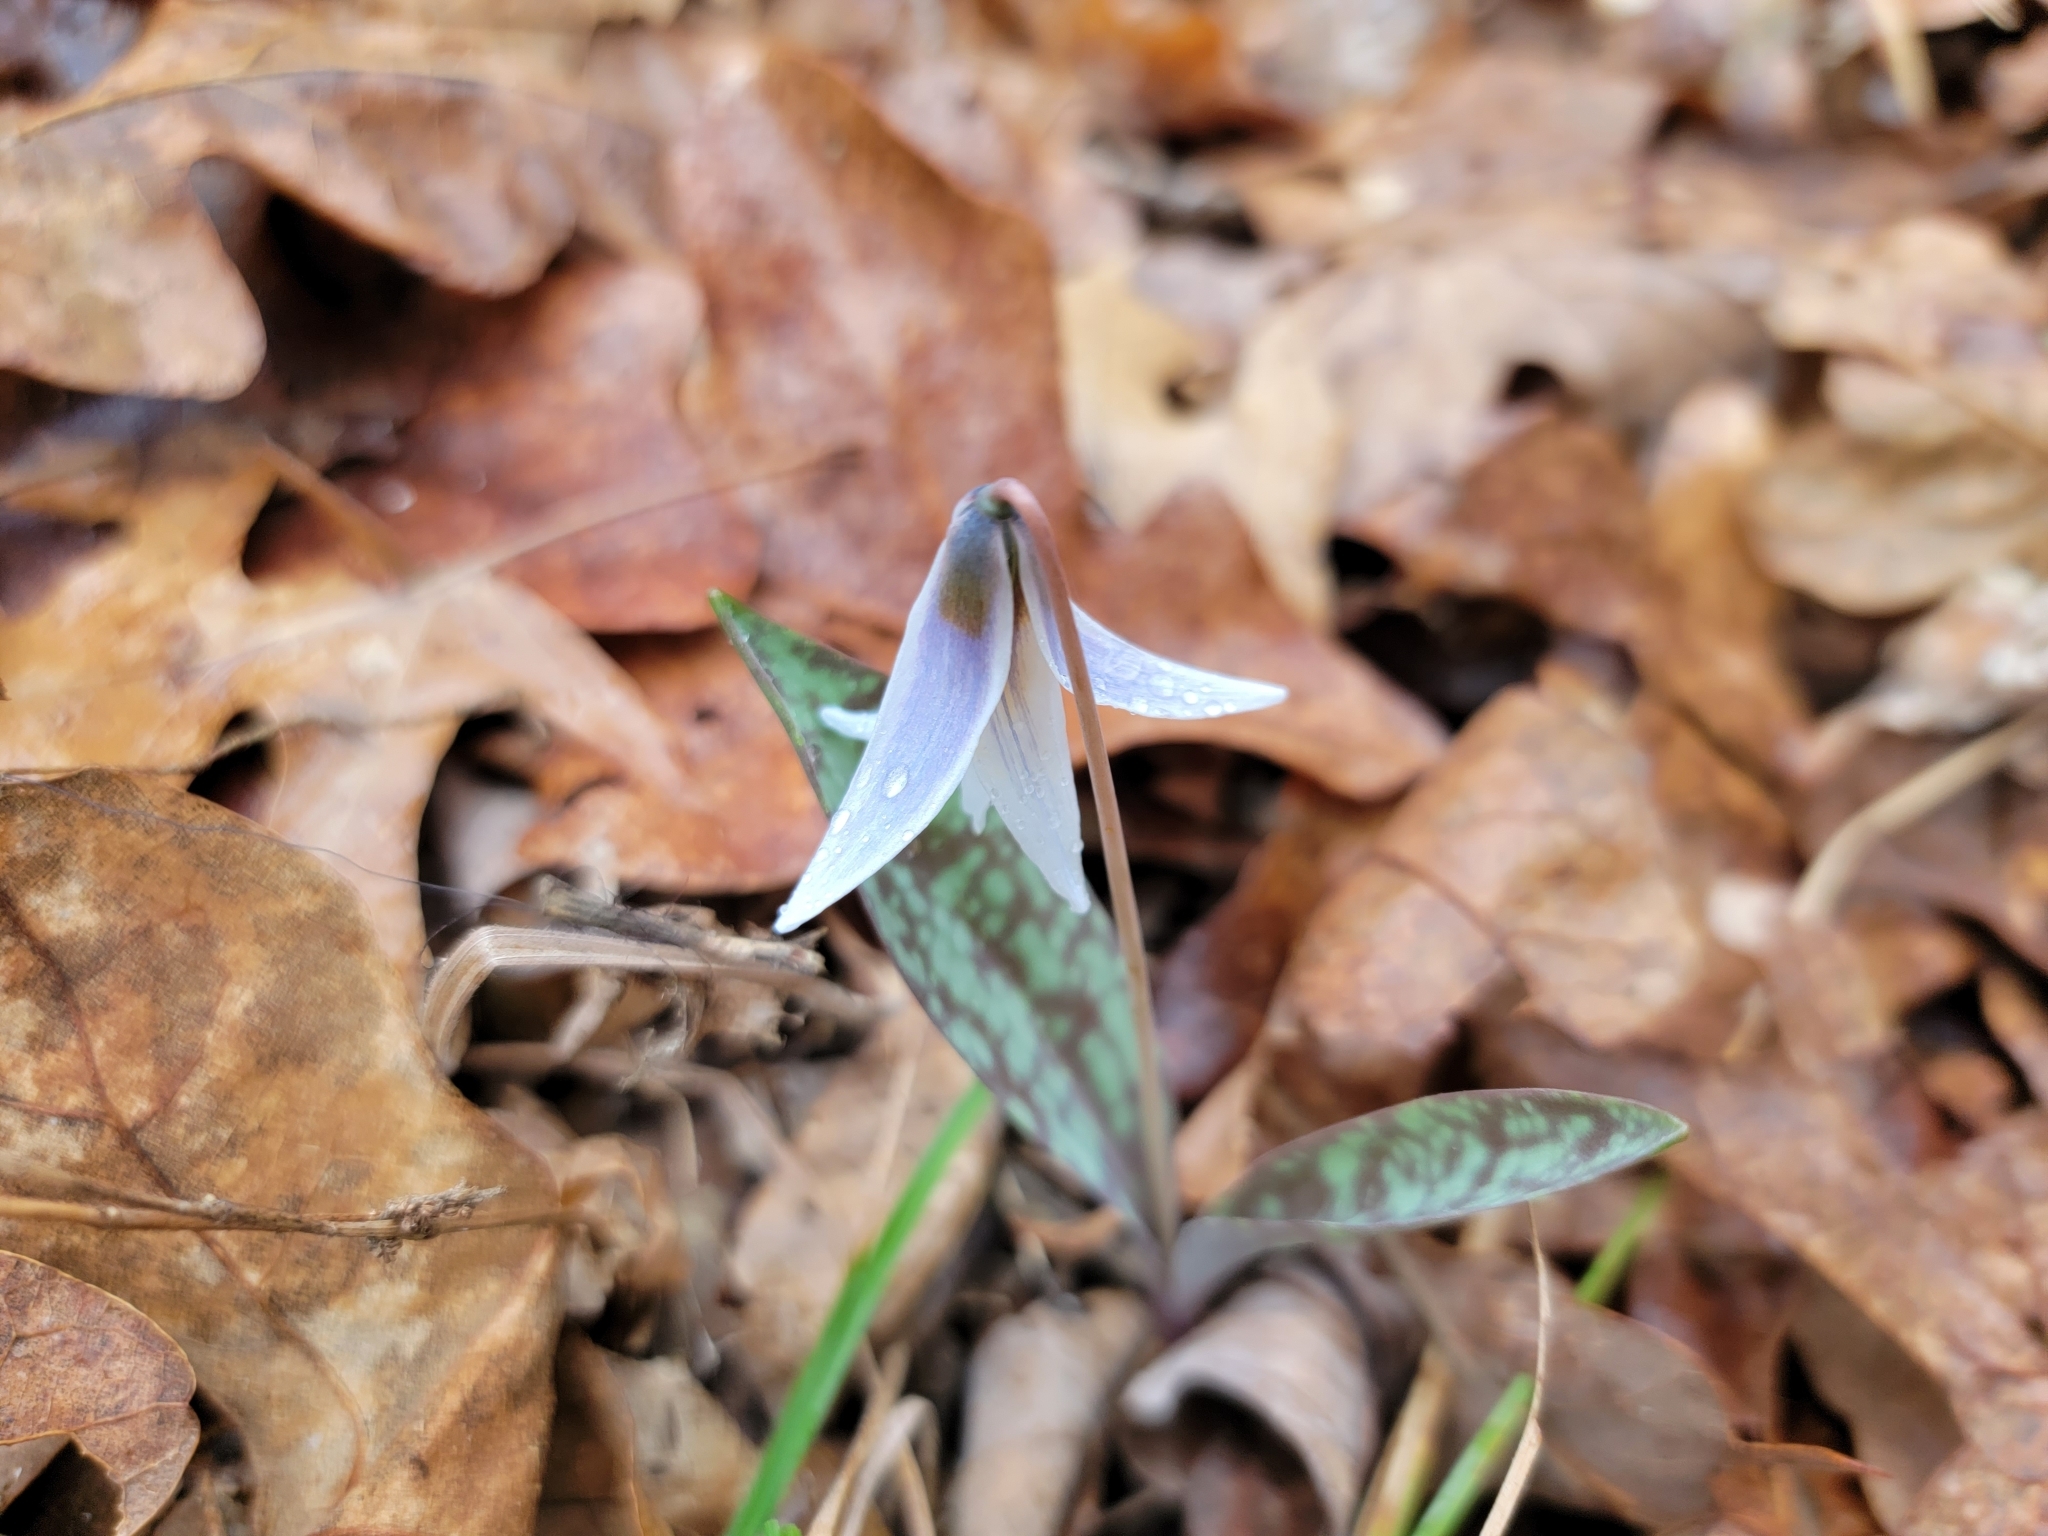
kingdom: Plantae
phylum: Tracheophyta
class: Liliopsida
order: Liliales
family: Liliaceae
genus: Erythronium
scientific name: Erythronium albidum
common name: White trout-lily
